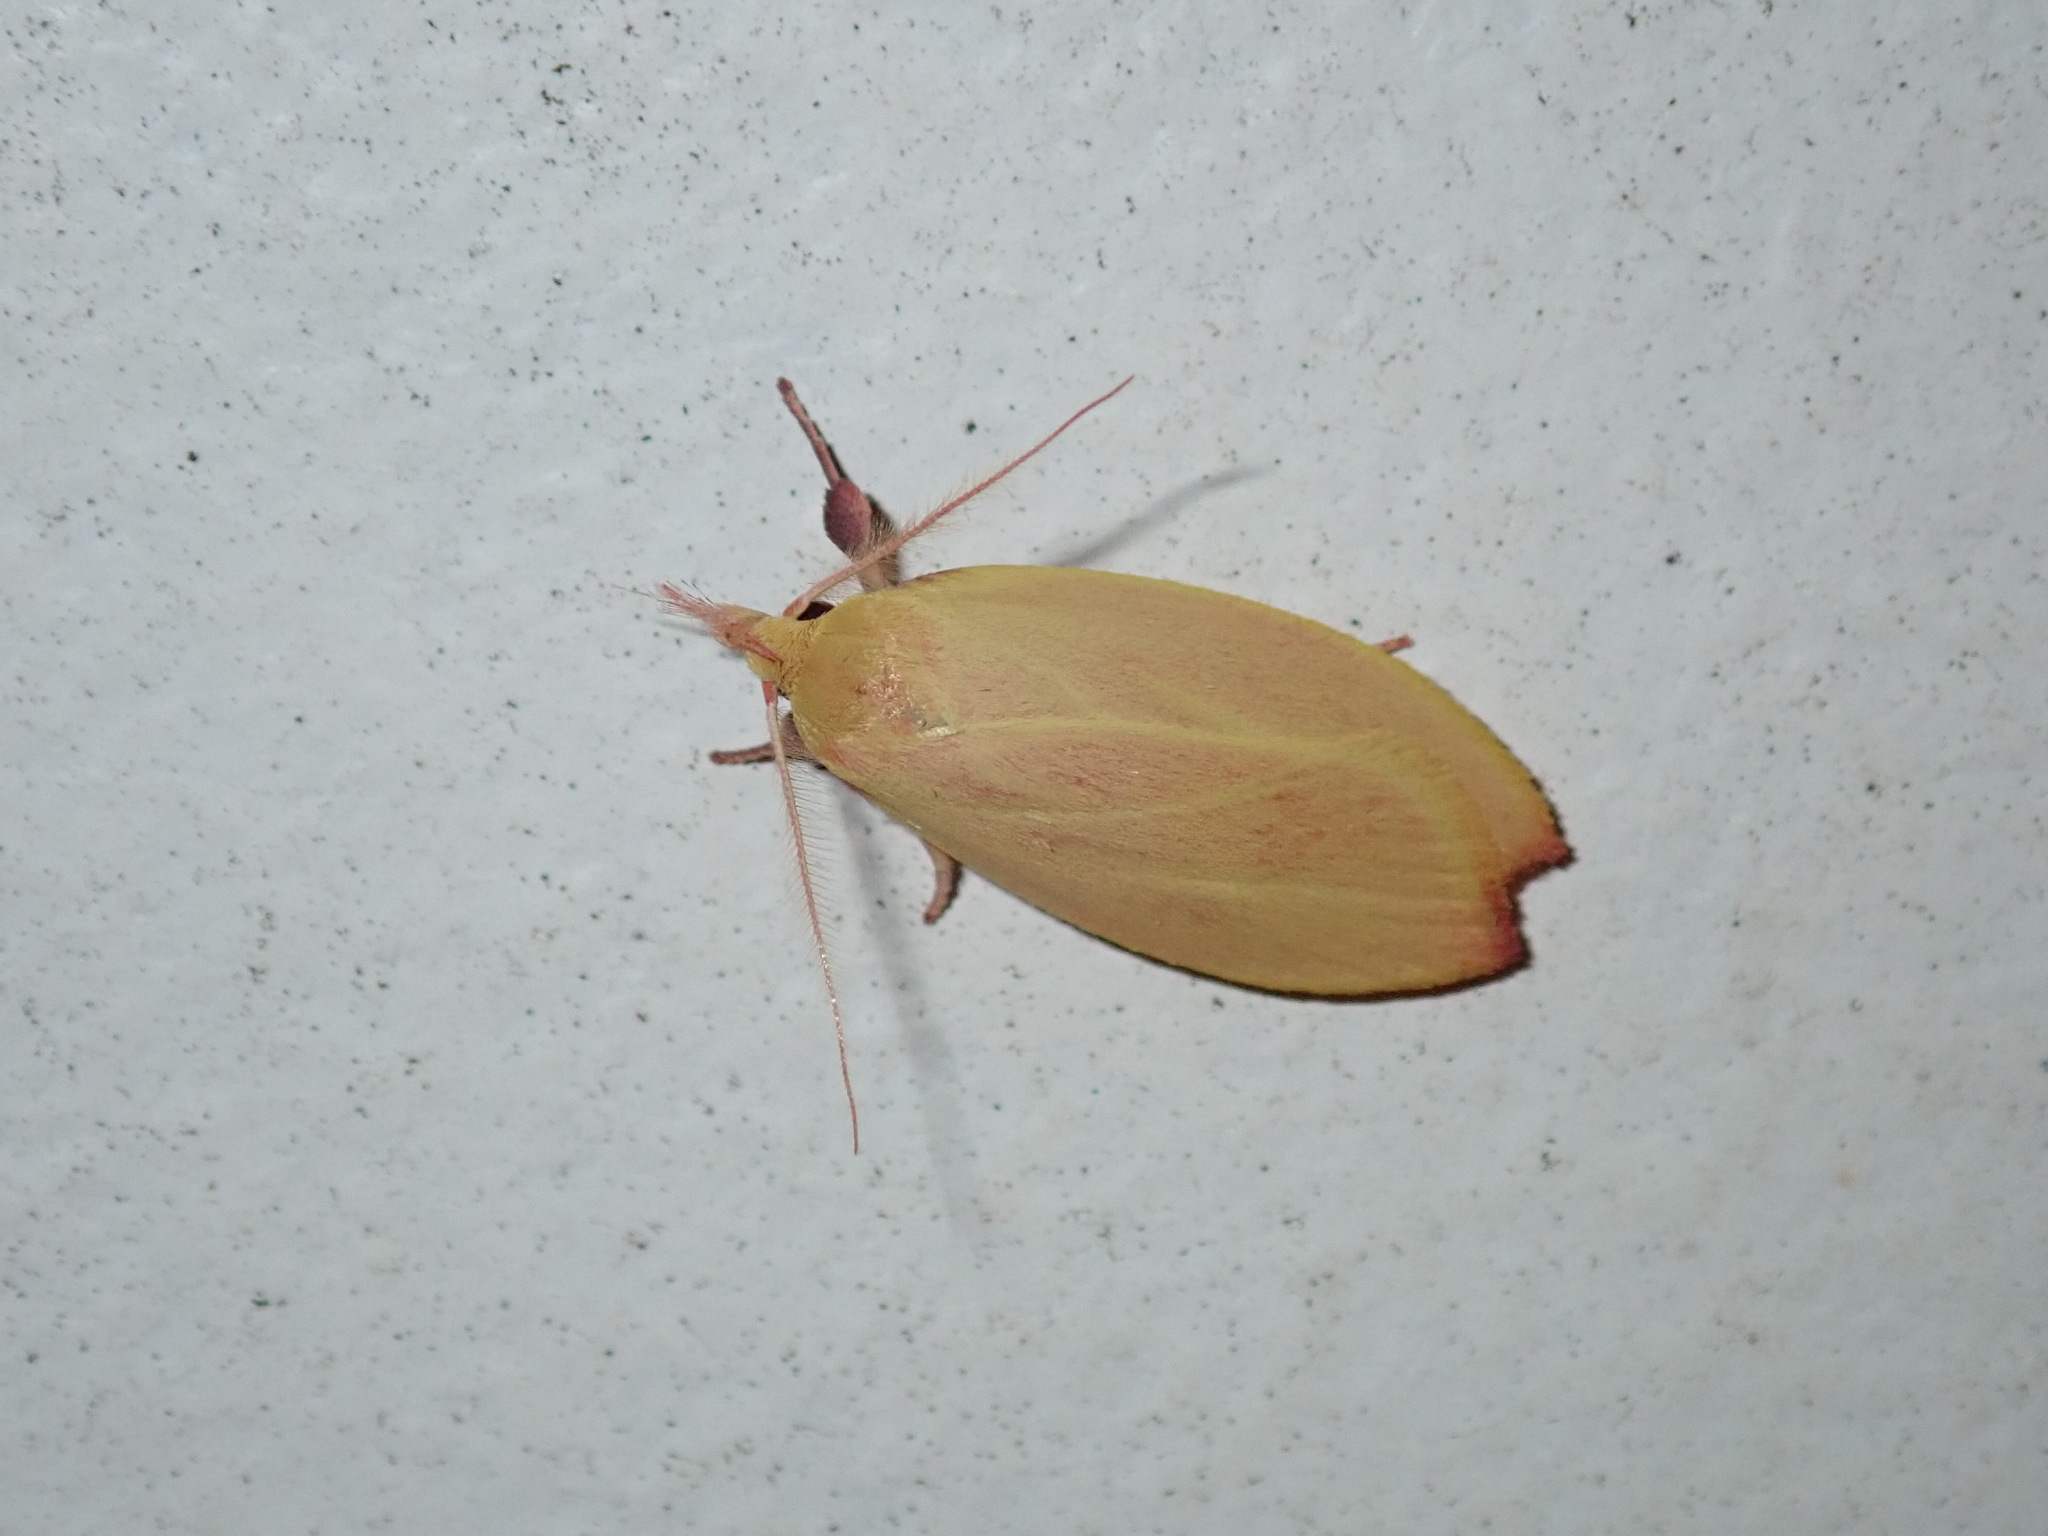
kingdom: Animalia
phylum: Arthropoda
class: Insecta
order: Lepidoptera
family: Oecophoridae
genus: Wingia
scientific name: Wingia rectiorella
